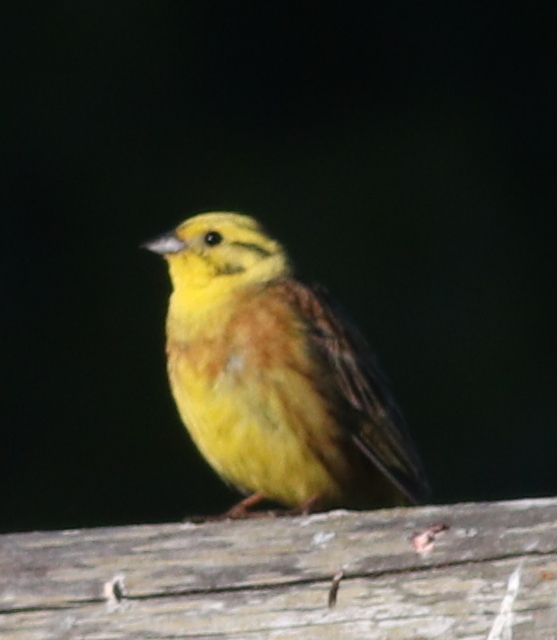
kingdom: Animalia
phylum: Chordata
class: Aves
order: Passeriformes
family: Emberizidae
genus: Emberiza
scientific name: Emberiza citrinella
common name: Yellowhammer
